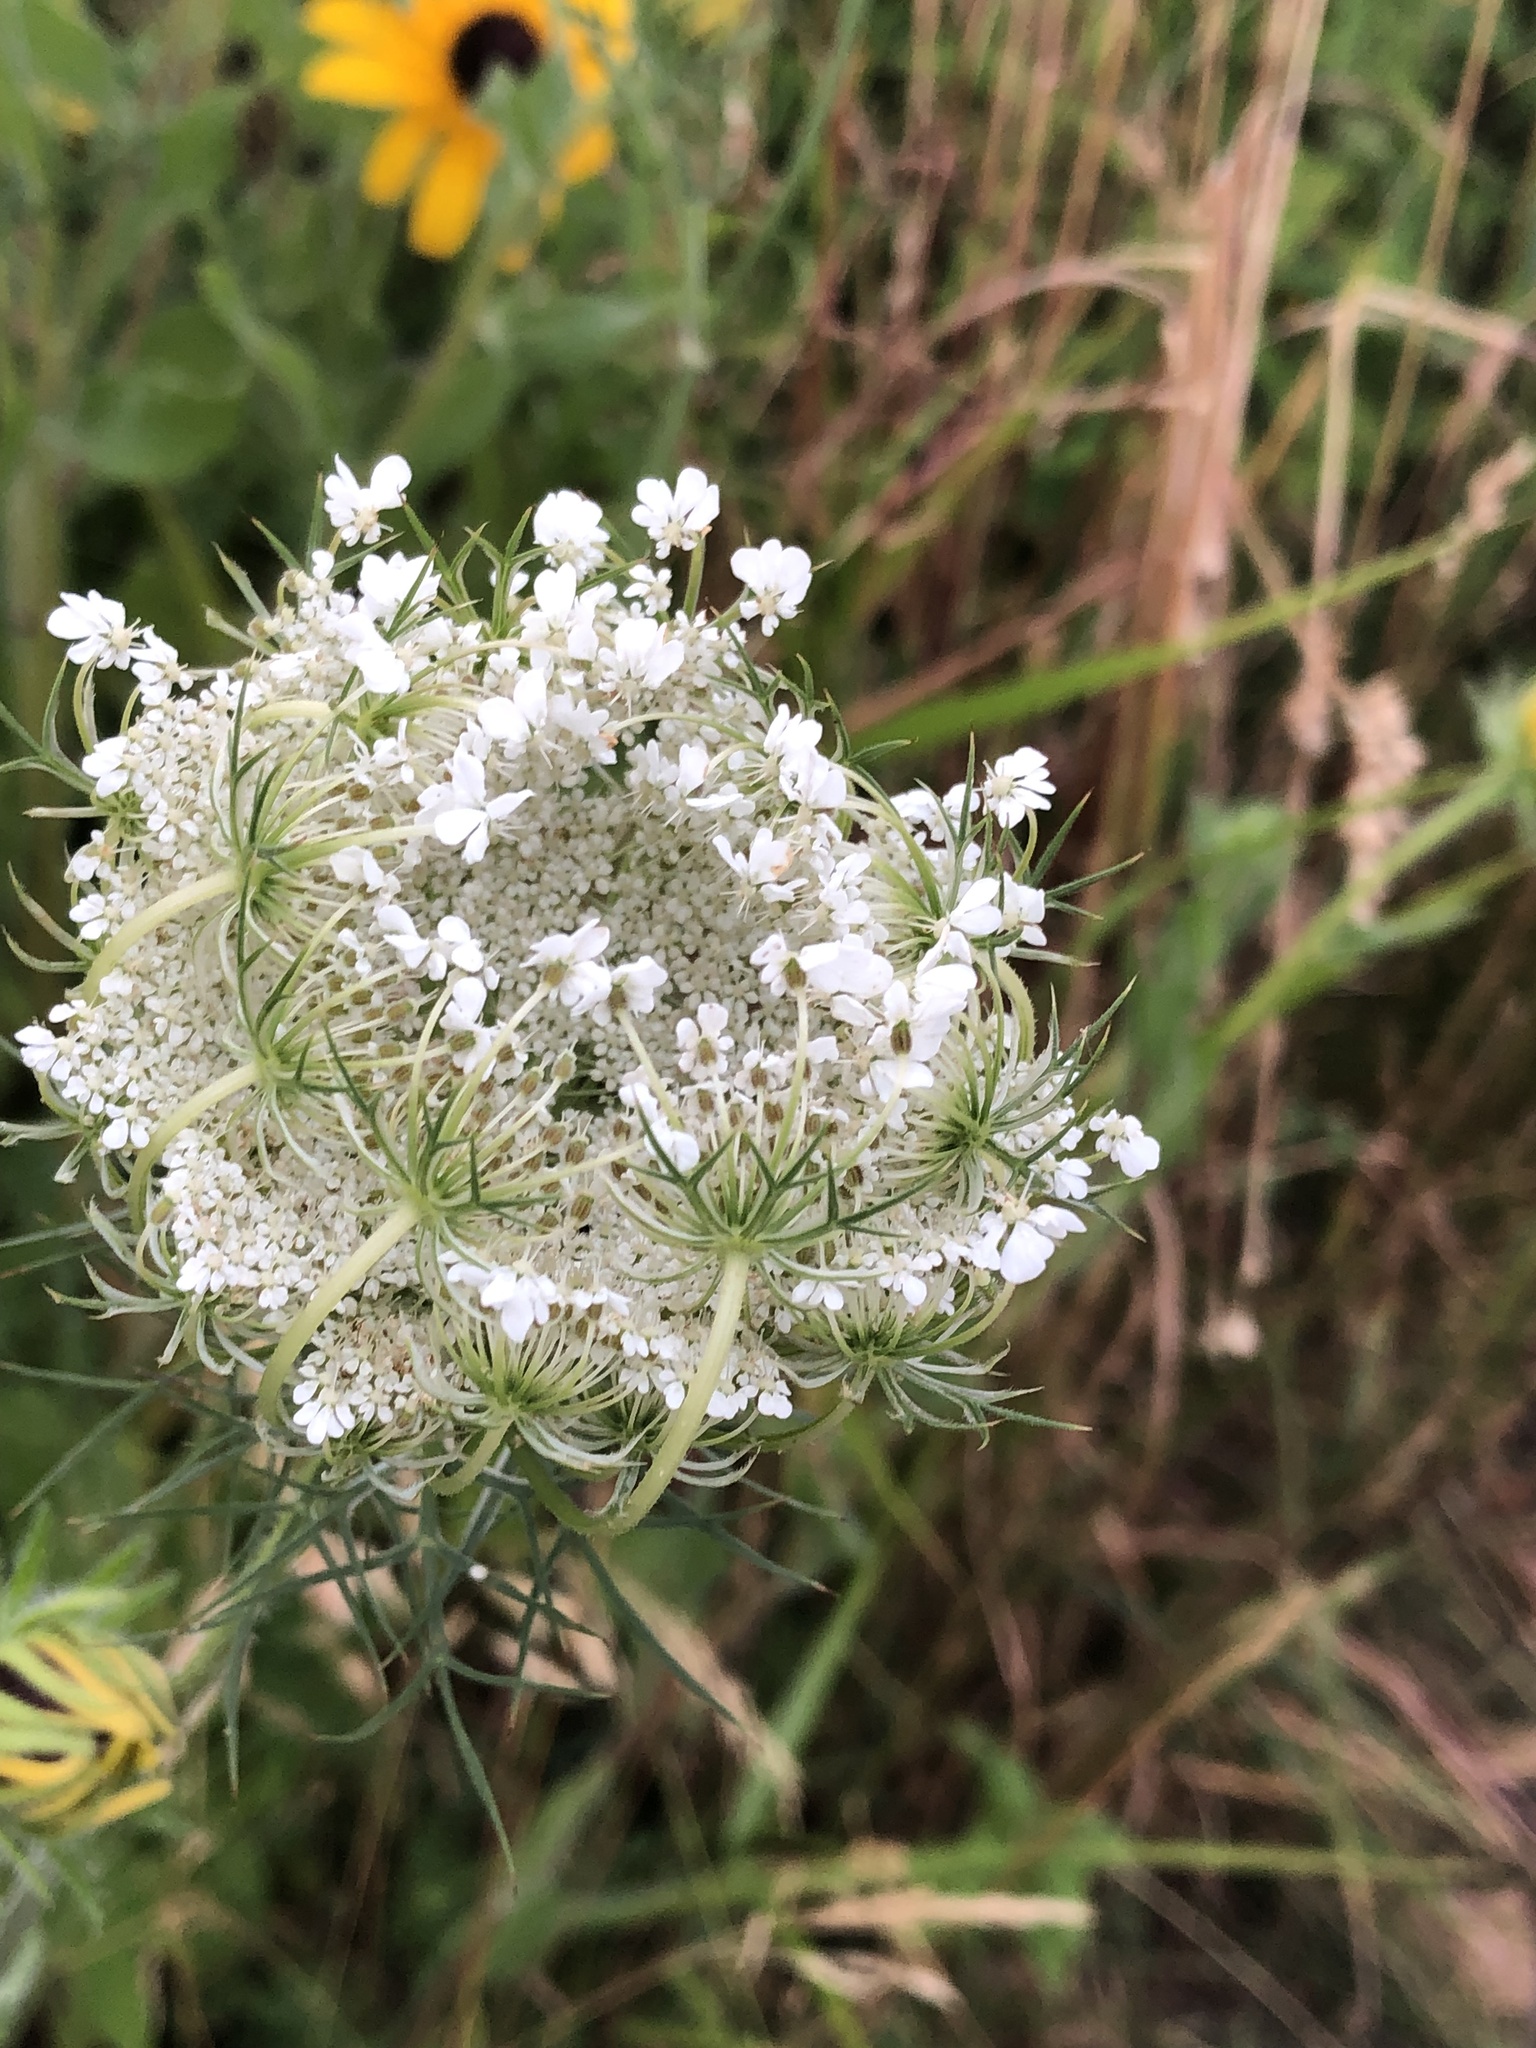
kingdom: Plantae
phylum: Tracheophyta
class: Magnoliopsida
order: Apiales
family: Apiaceae
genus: Daucus
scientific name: Daucus carota
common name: Wild carrot
